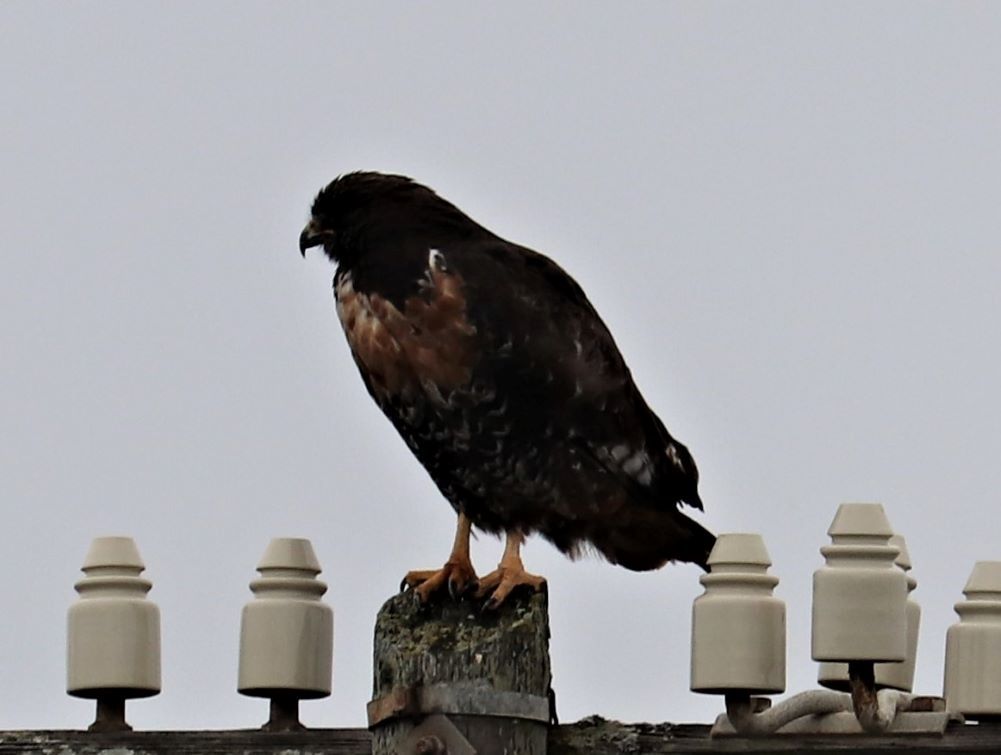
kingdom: Animalia
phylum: Chordata
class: Aves
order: Accipitriformes
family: Accipitridae
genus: Buteo
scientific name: Buteo rufofuscus
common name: Jackal buzzard
